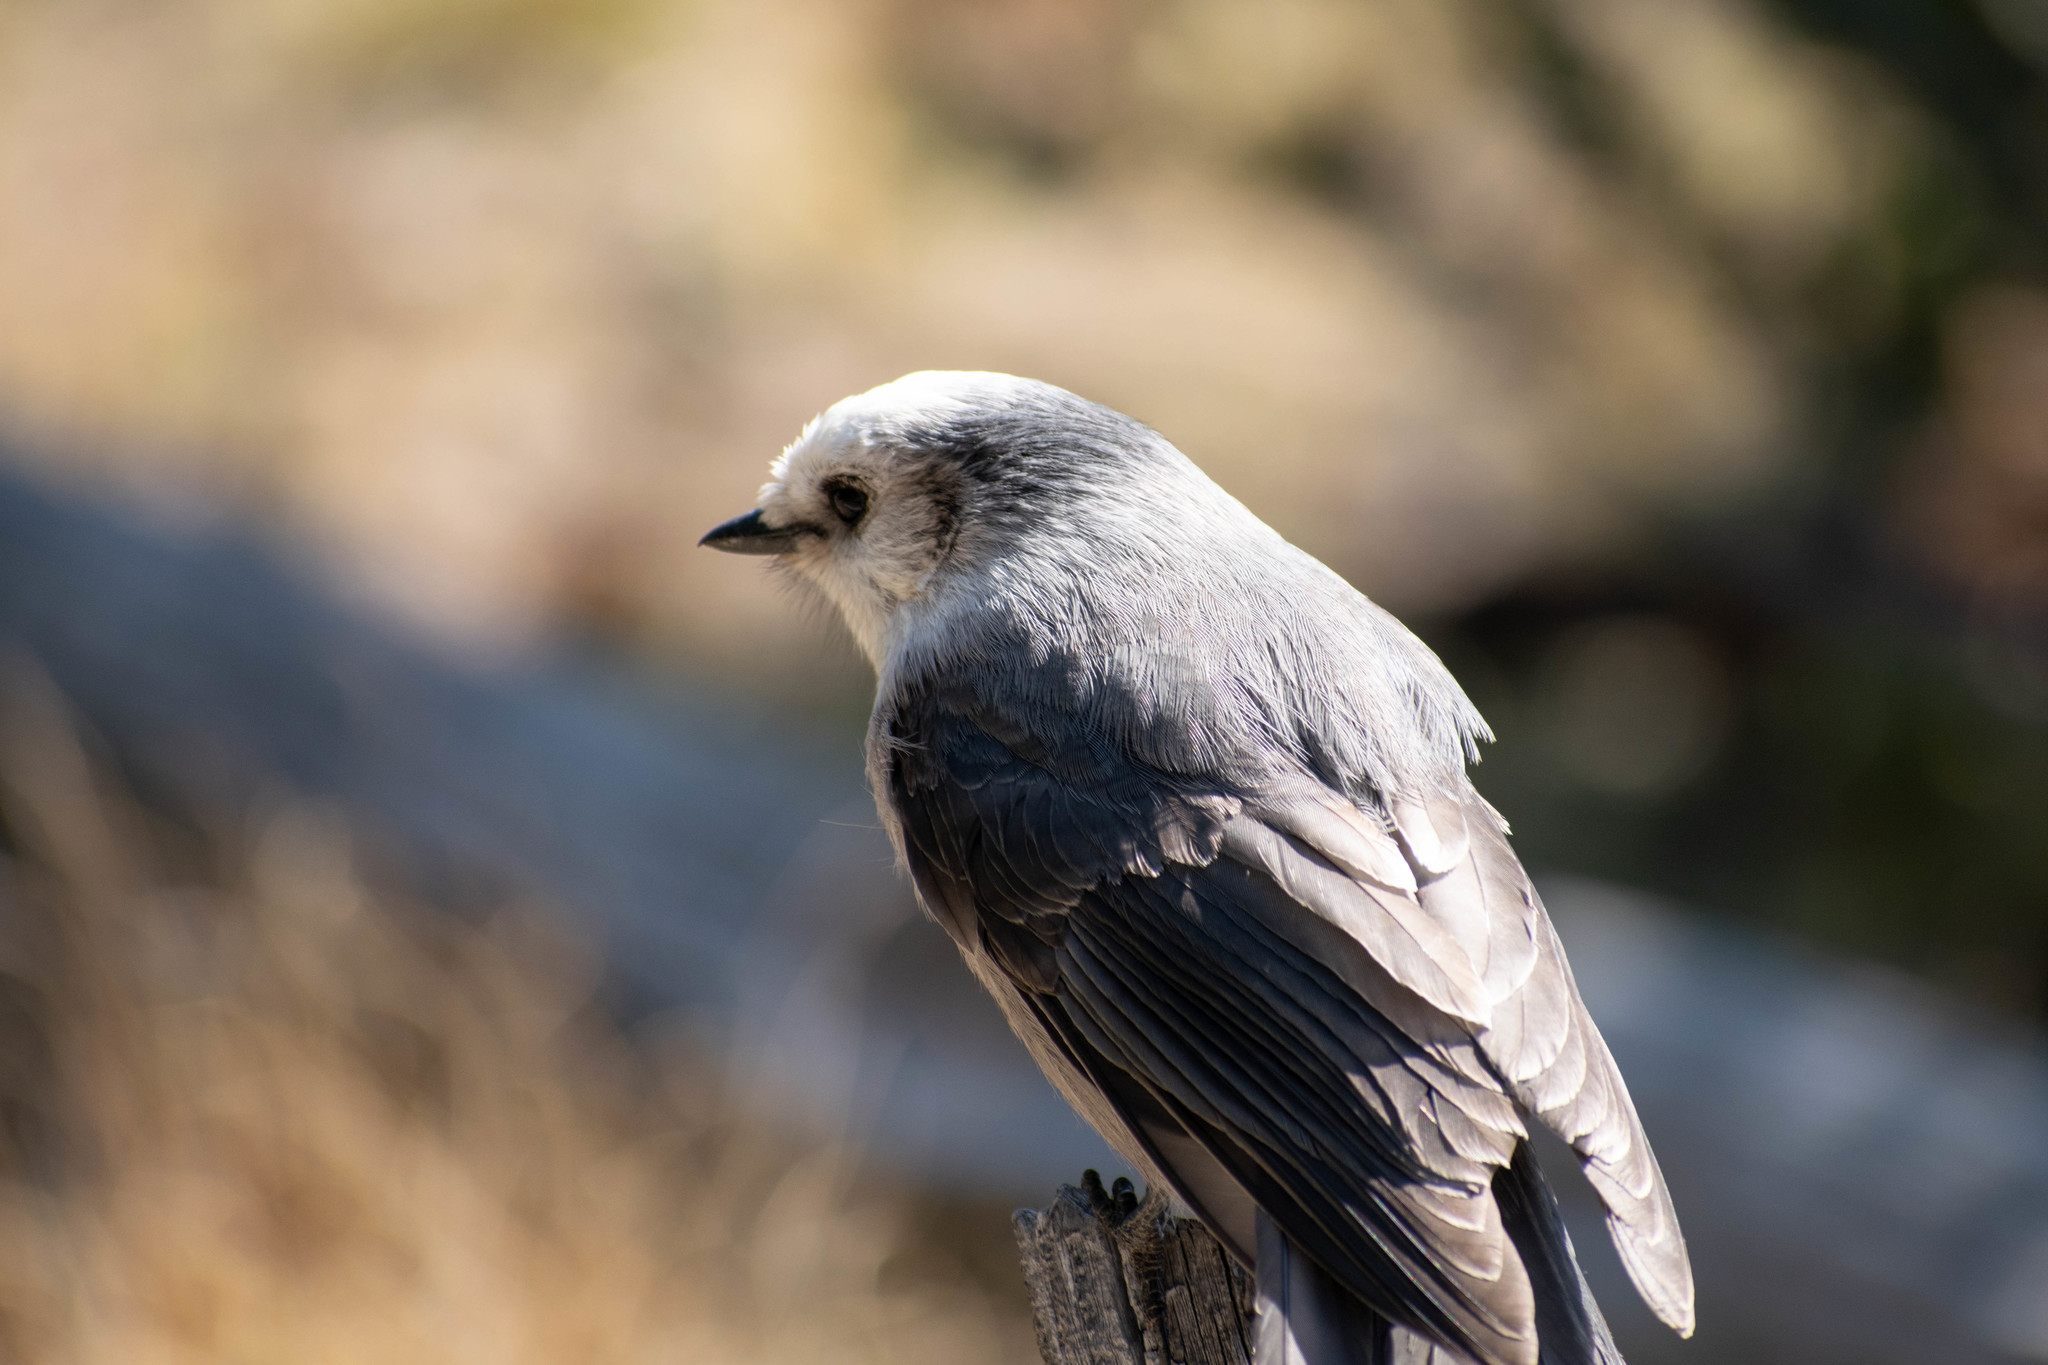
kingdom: Animalia
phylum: Chordata
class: Aves
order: Passeriformes
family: Corvidae
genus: Perisoreus
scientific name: Perisoreus canadensis
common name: Gray jay
